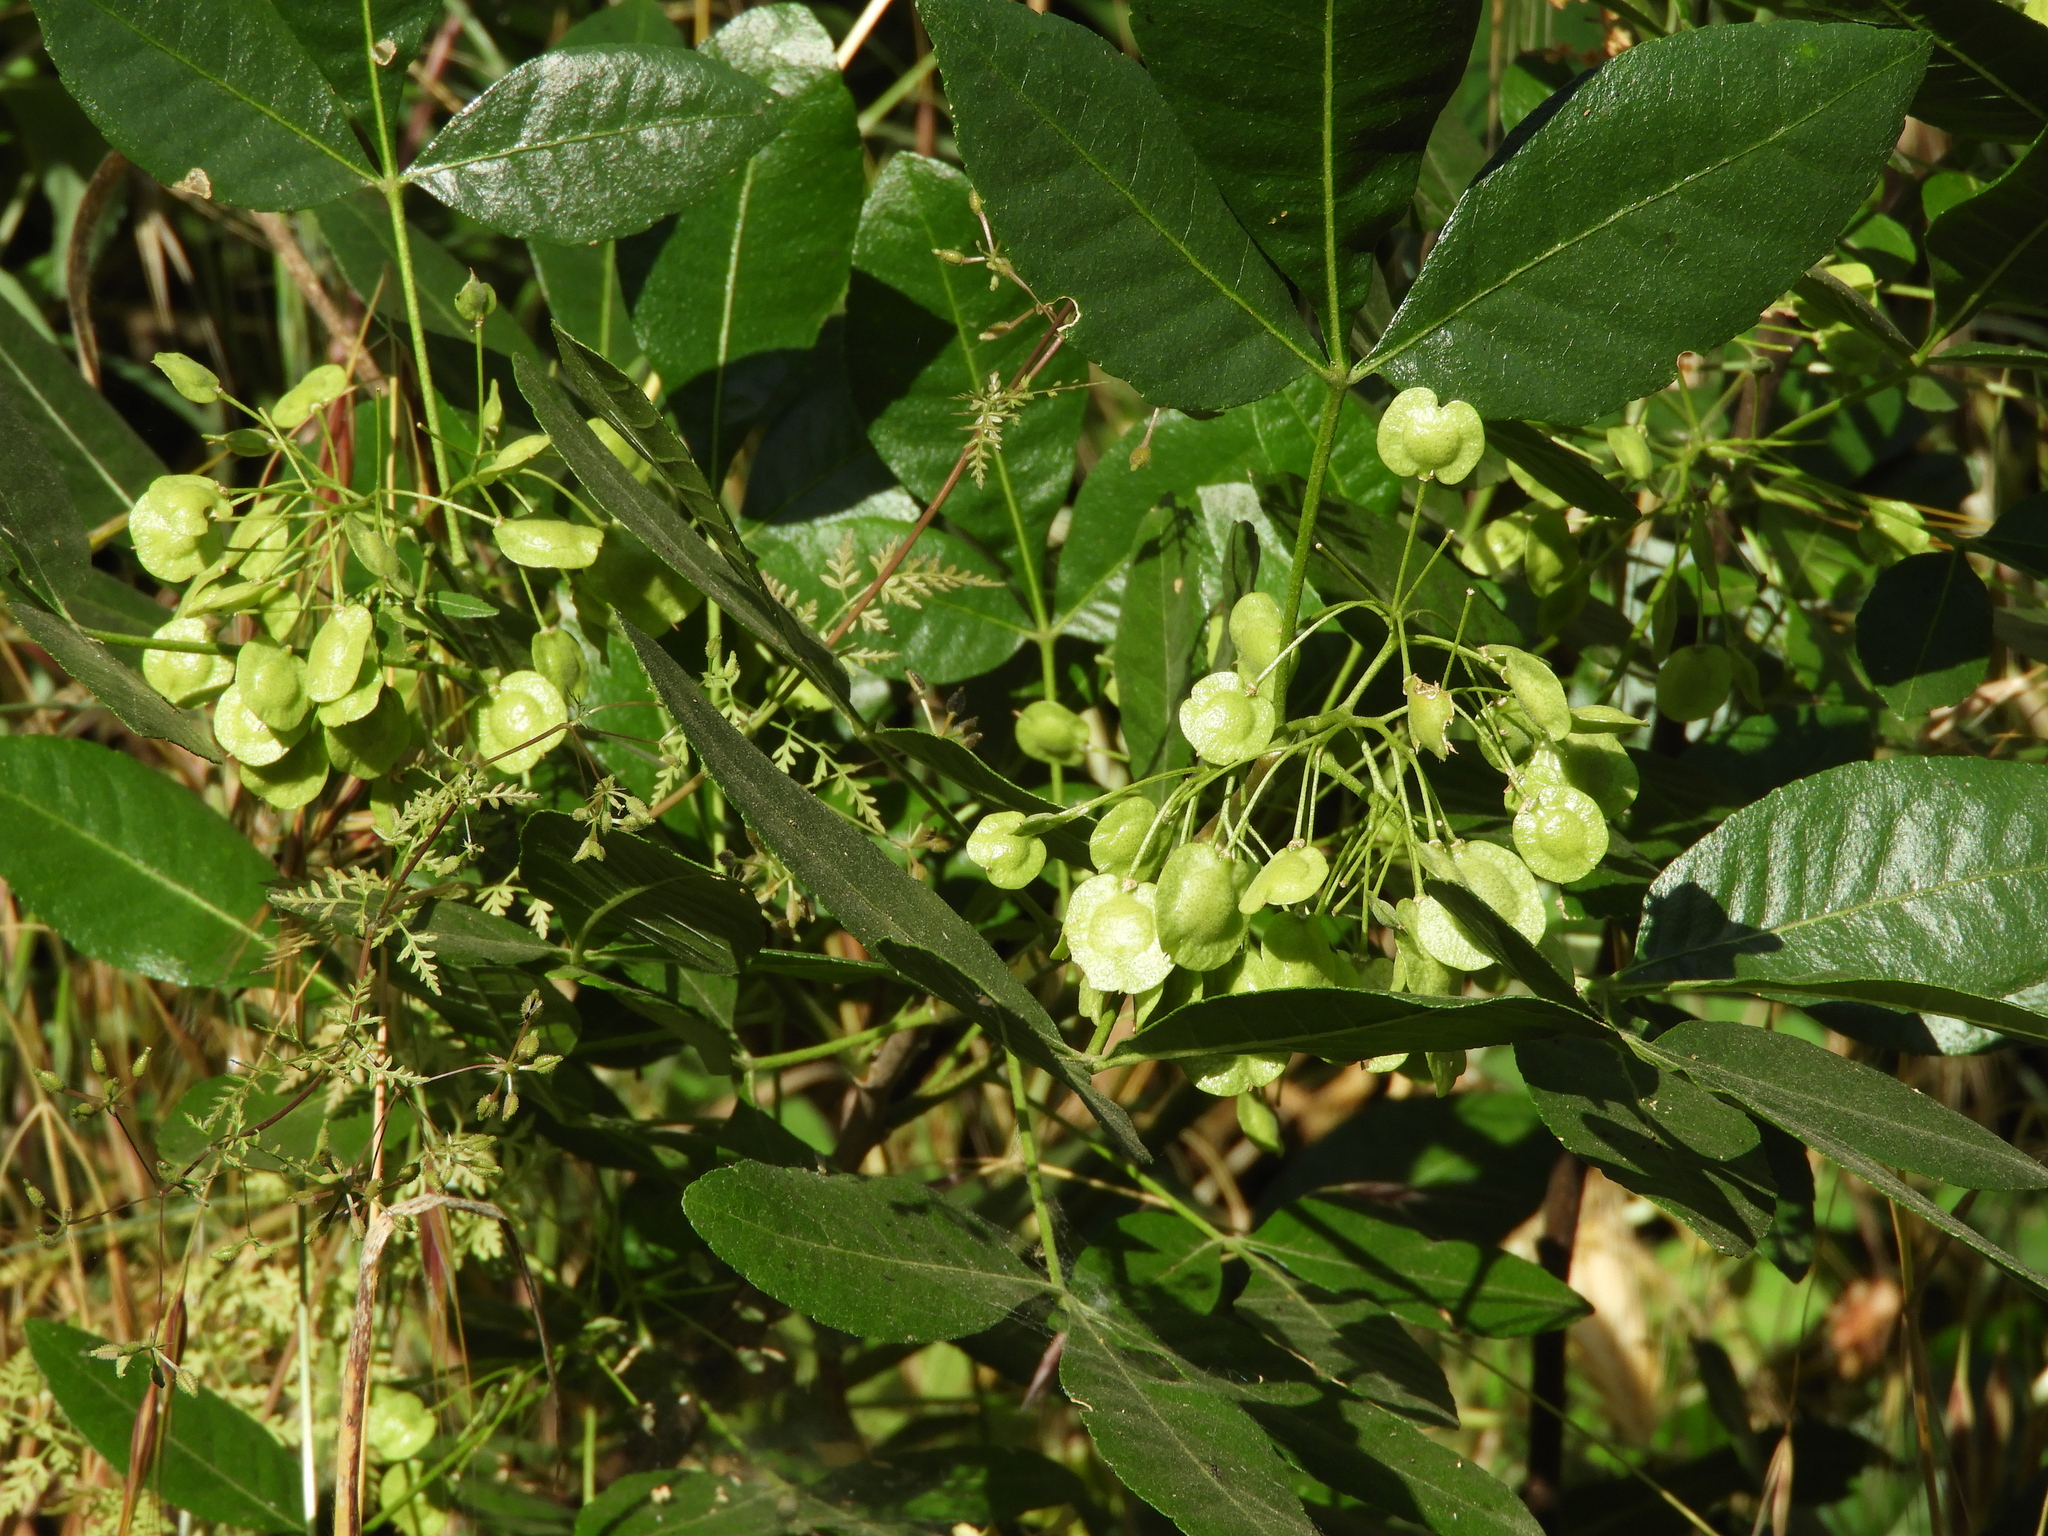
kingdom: Plantae
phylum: Tracheophyta
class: Magnoliopsida
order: Sapindales
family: Rutaceae
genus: Ptelea
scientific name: Ptelea crenulata
